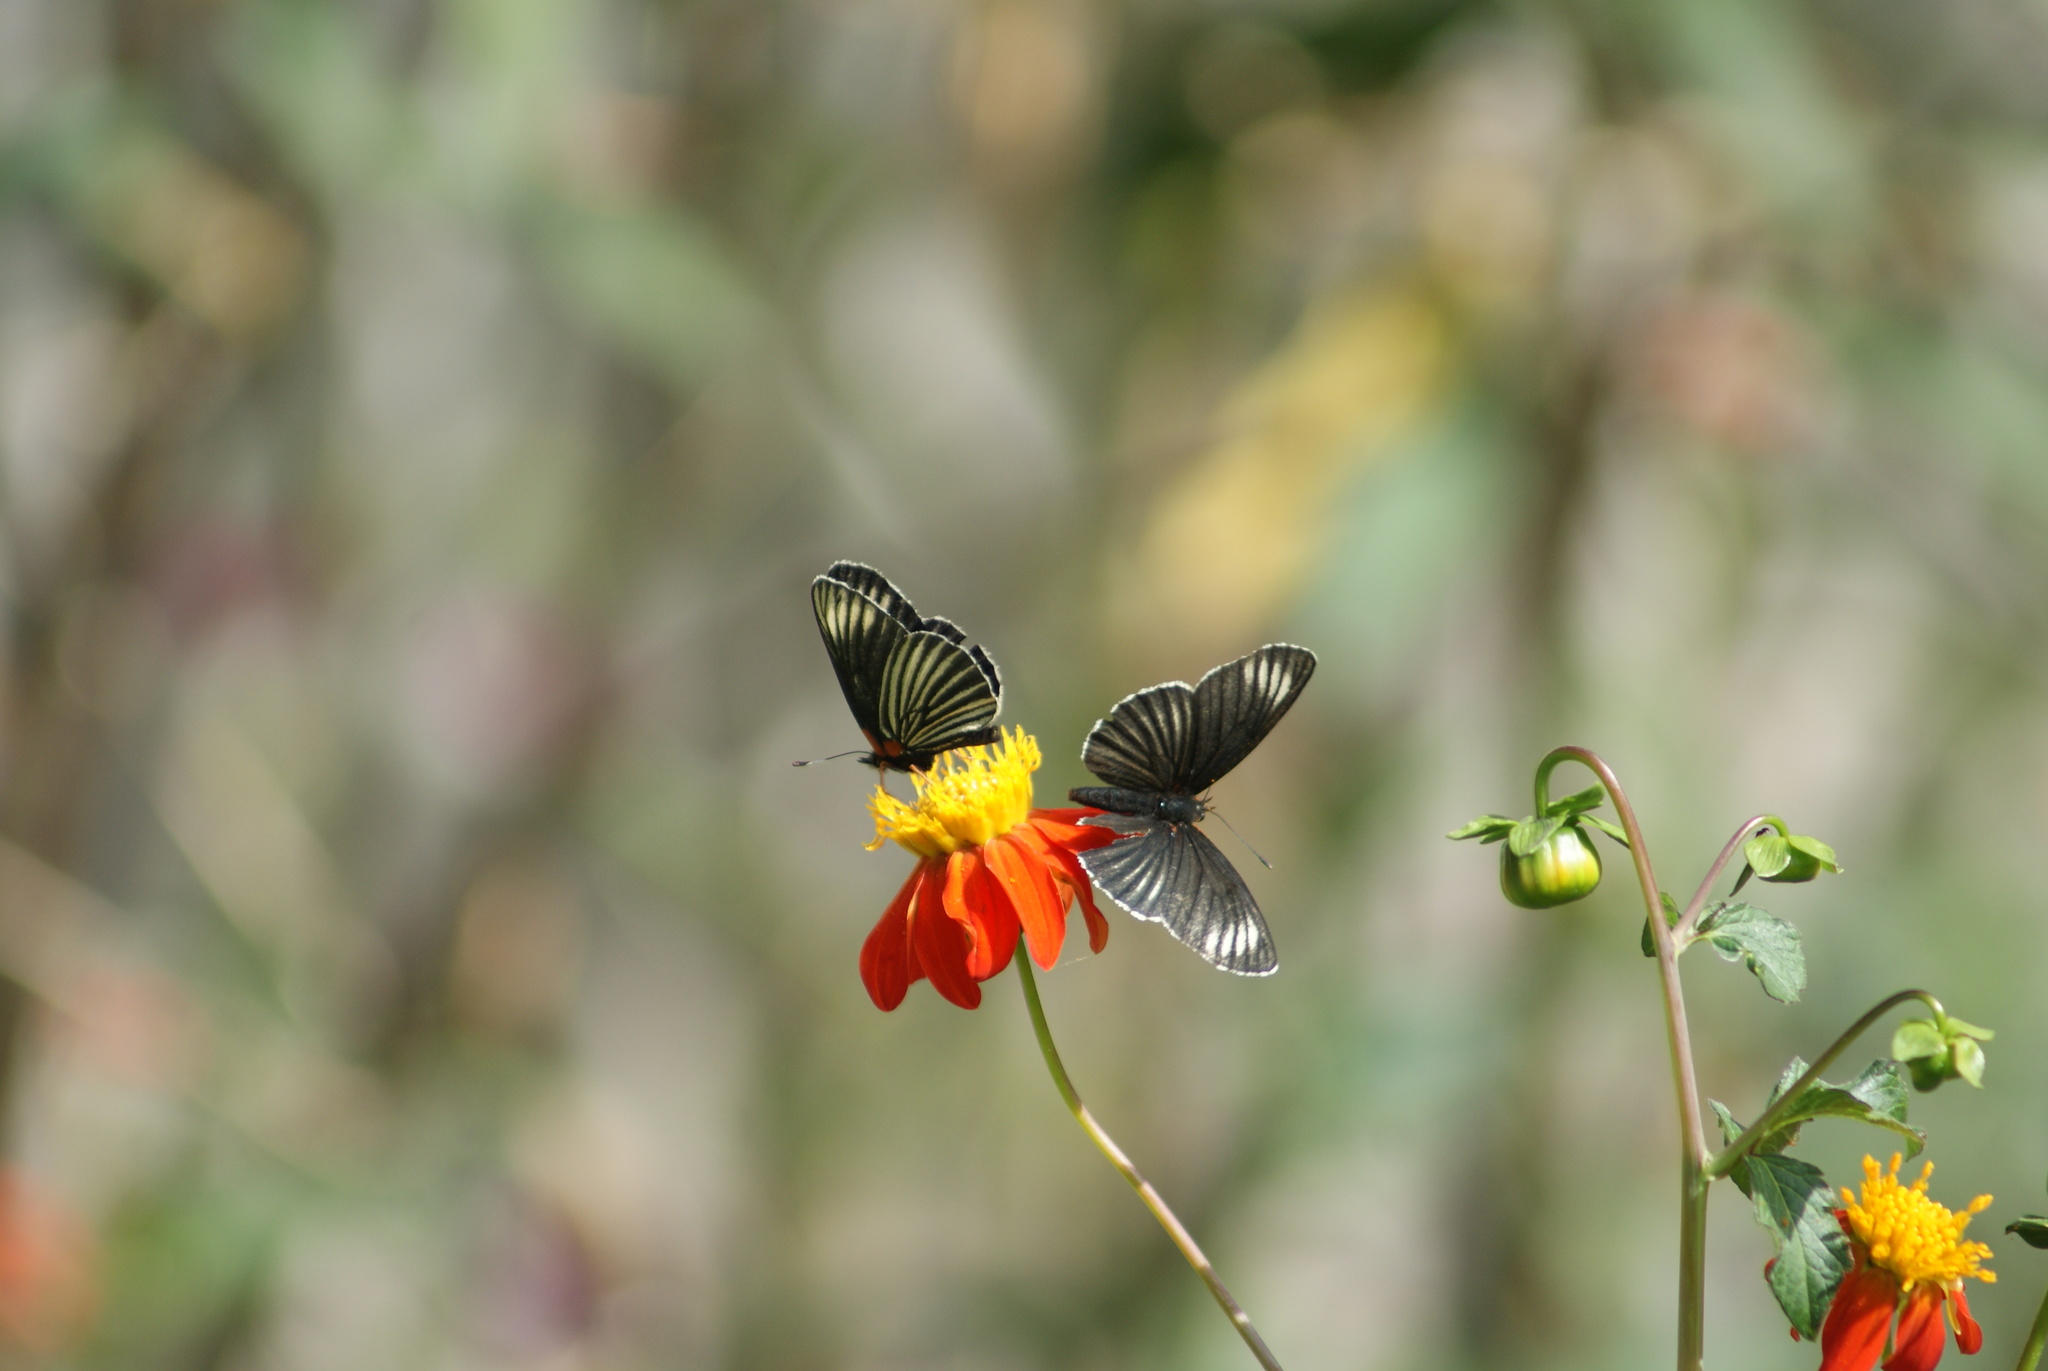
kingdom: Animalia
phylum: Arthropoda
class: Insecta
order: Lepidoptera
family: Nymphalidae
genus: Chlosyne
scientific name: Chlosyne ehrenbergii
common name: White-rayed patch
